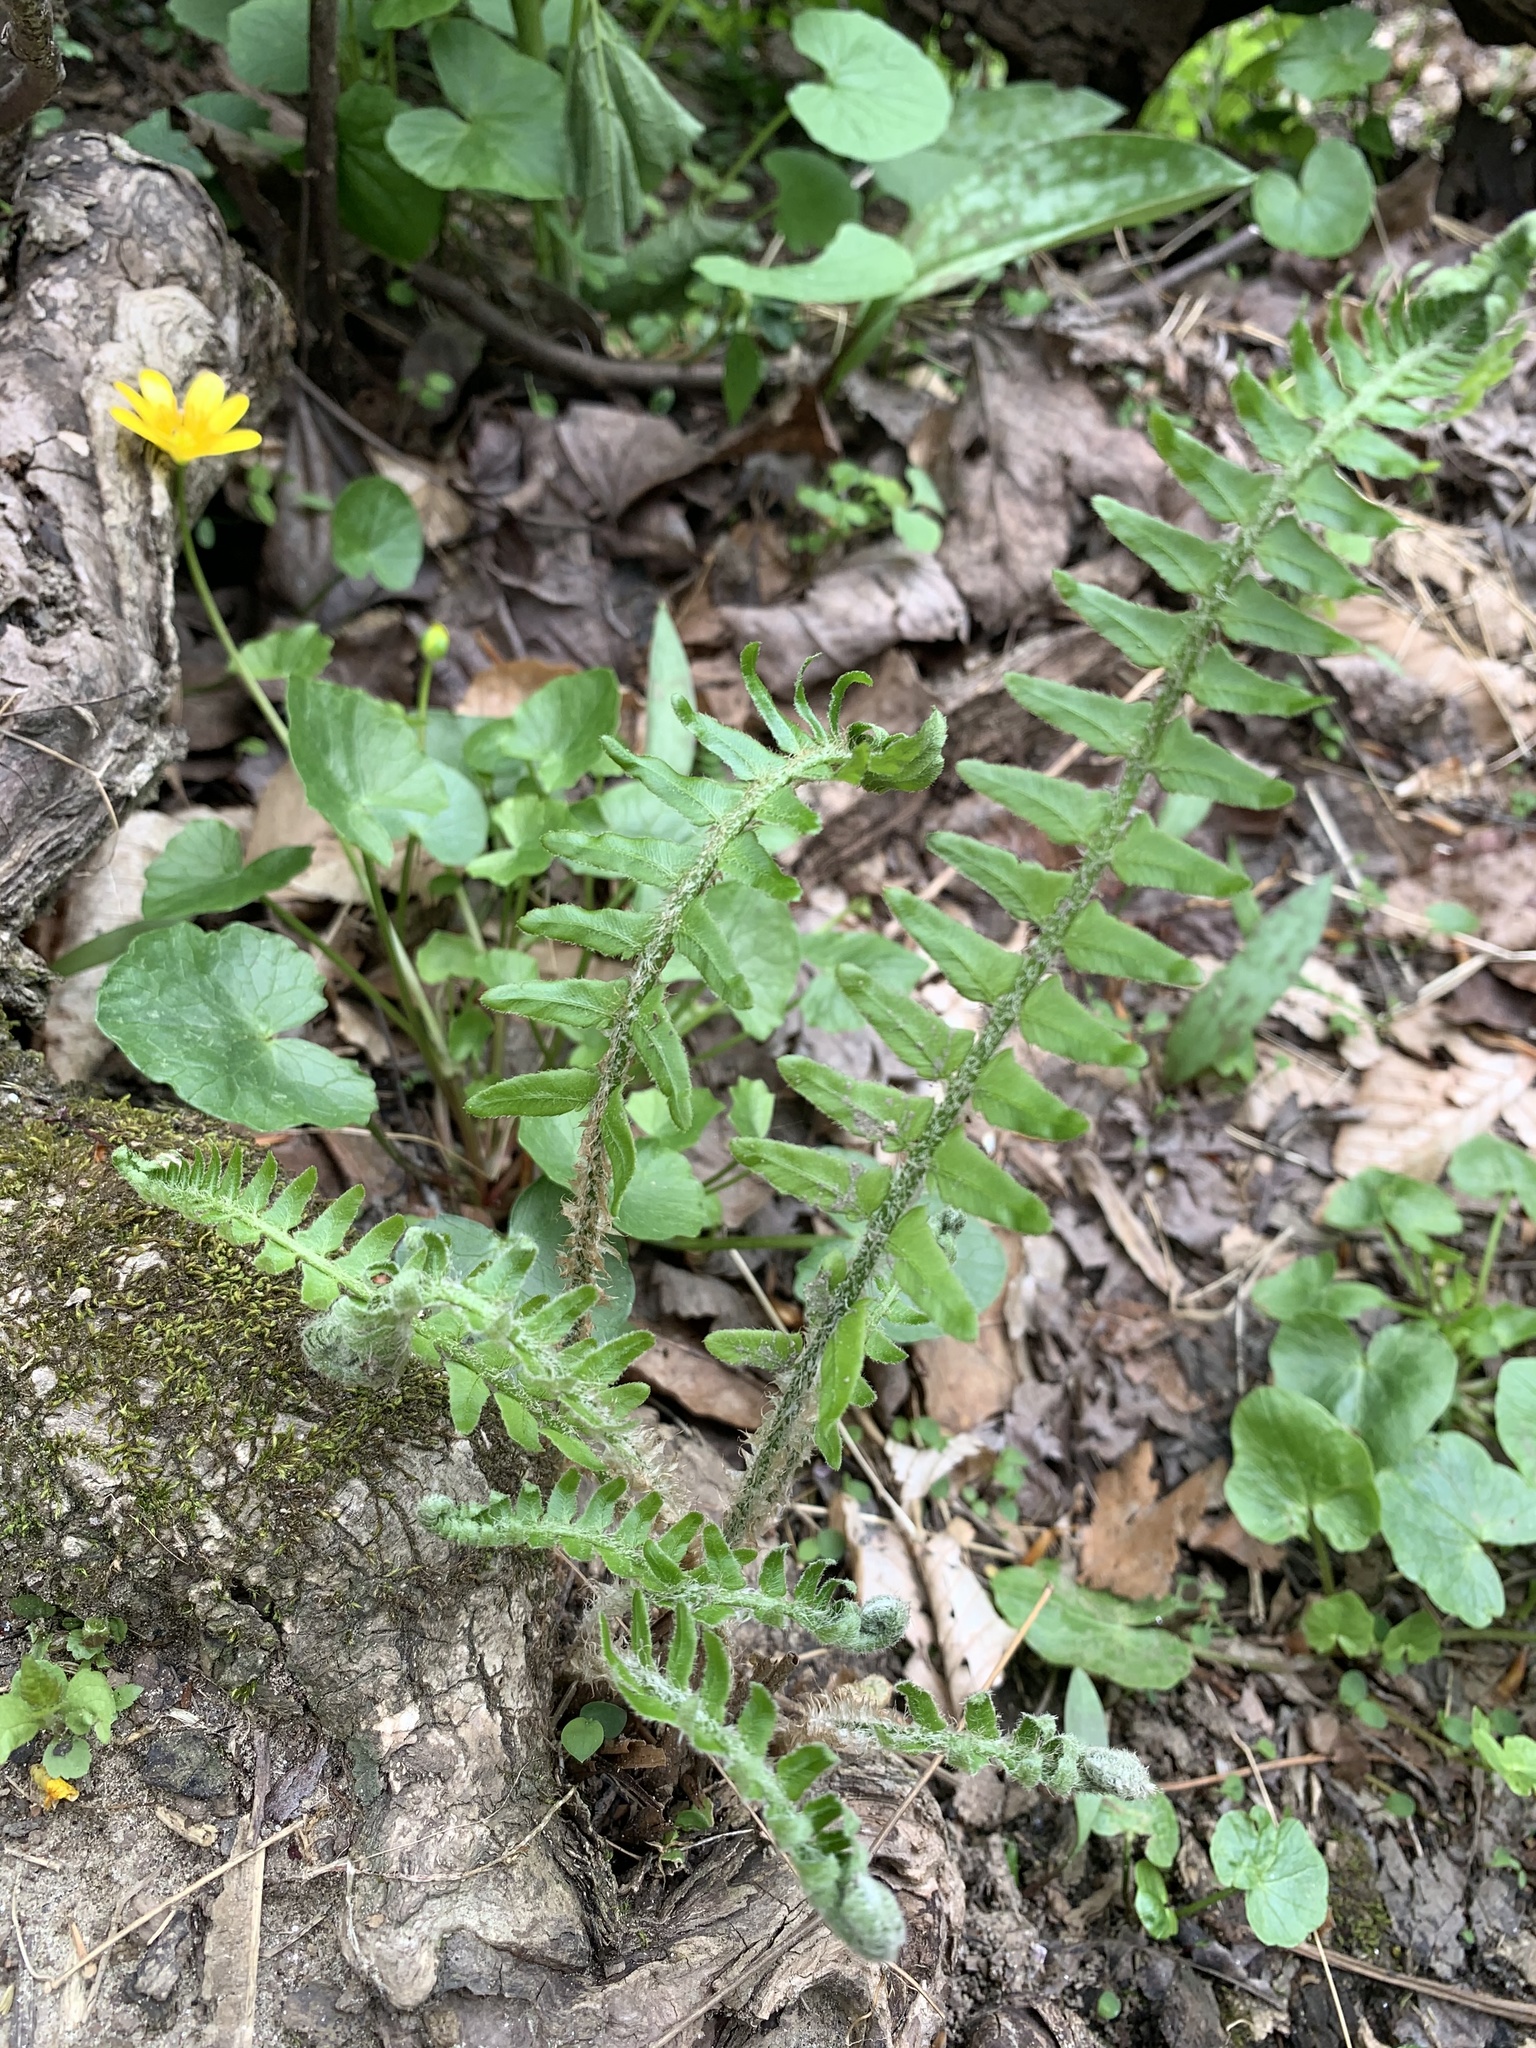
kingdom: Plantae
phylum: Tracheophyta
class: Polypodiopsida
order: Polypodiales
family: Dryopteridaceae
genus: Polystichum
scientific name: Polystichum acrostichoides
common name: Christmas fern
